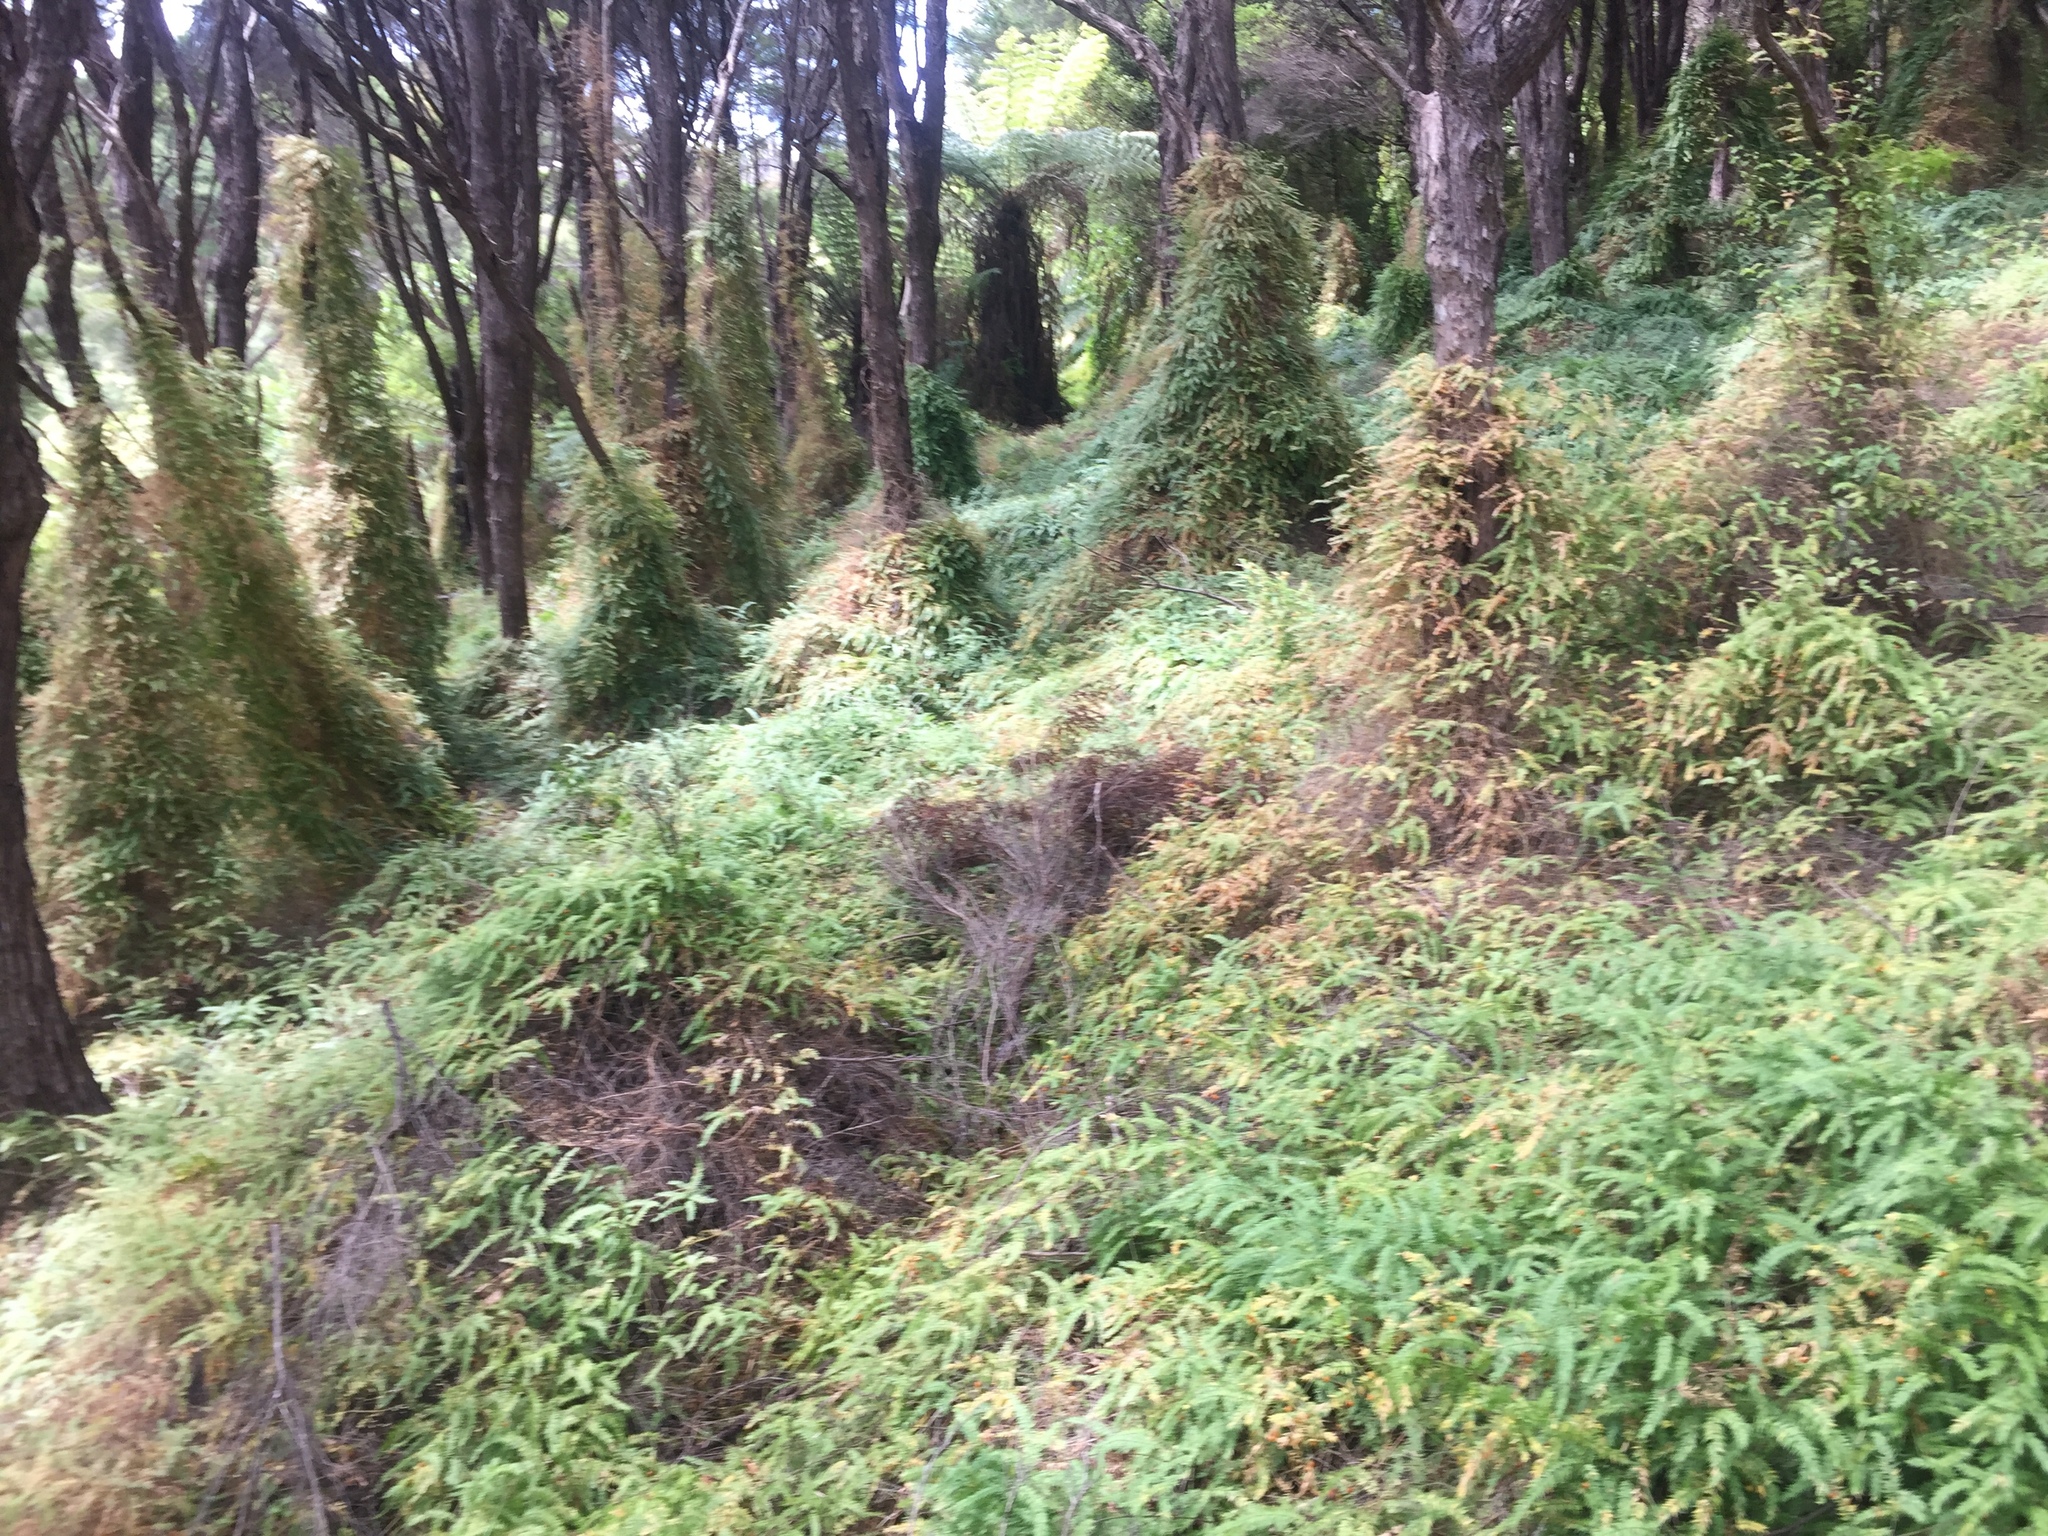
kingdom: Plantae
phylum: Tracheophyta
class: Liliopsida
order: Asparagales
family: Asparagaceae
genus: Asparagus
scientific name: Asparagus scandens
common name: Asparagus-fern
